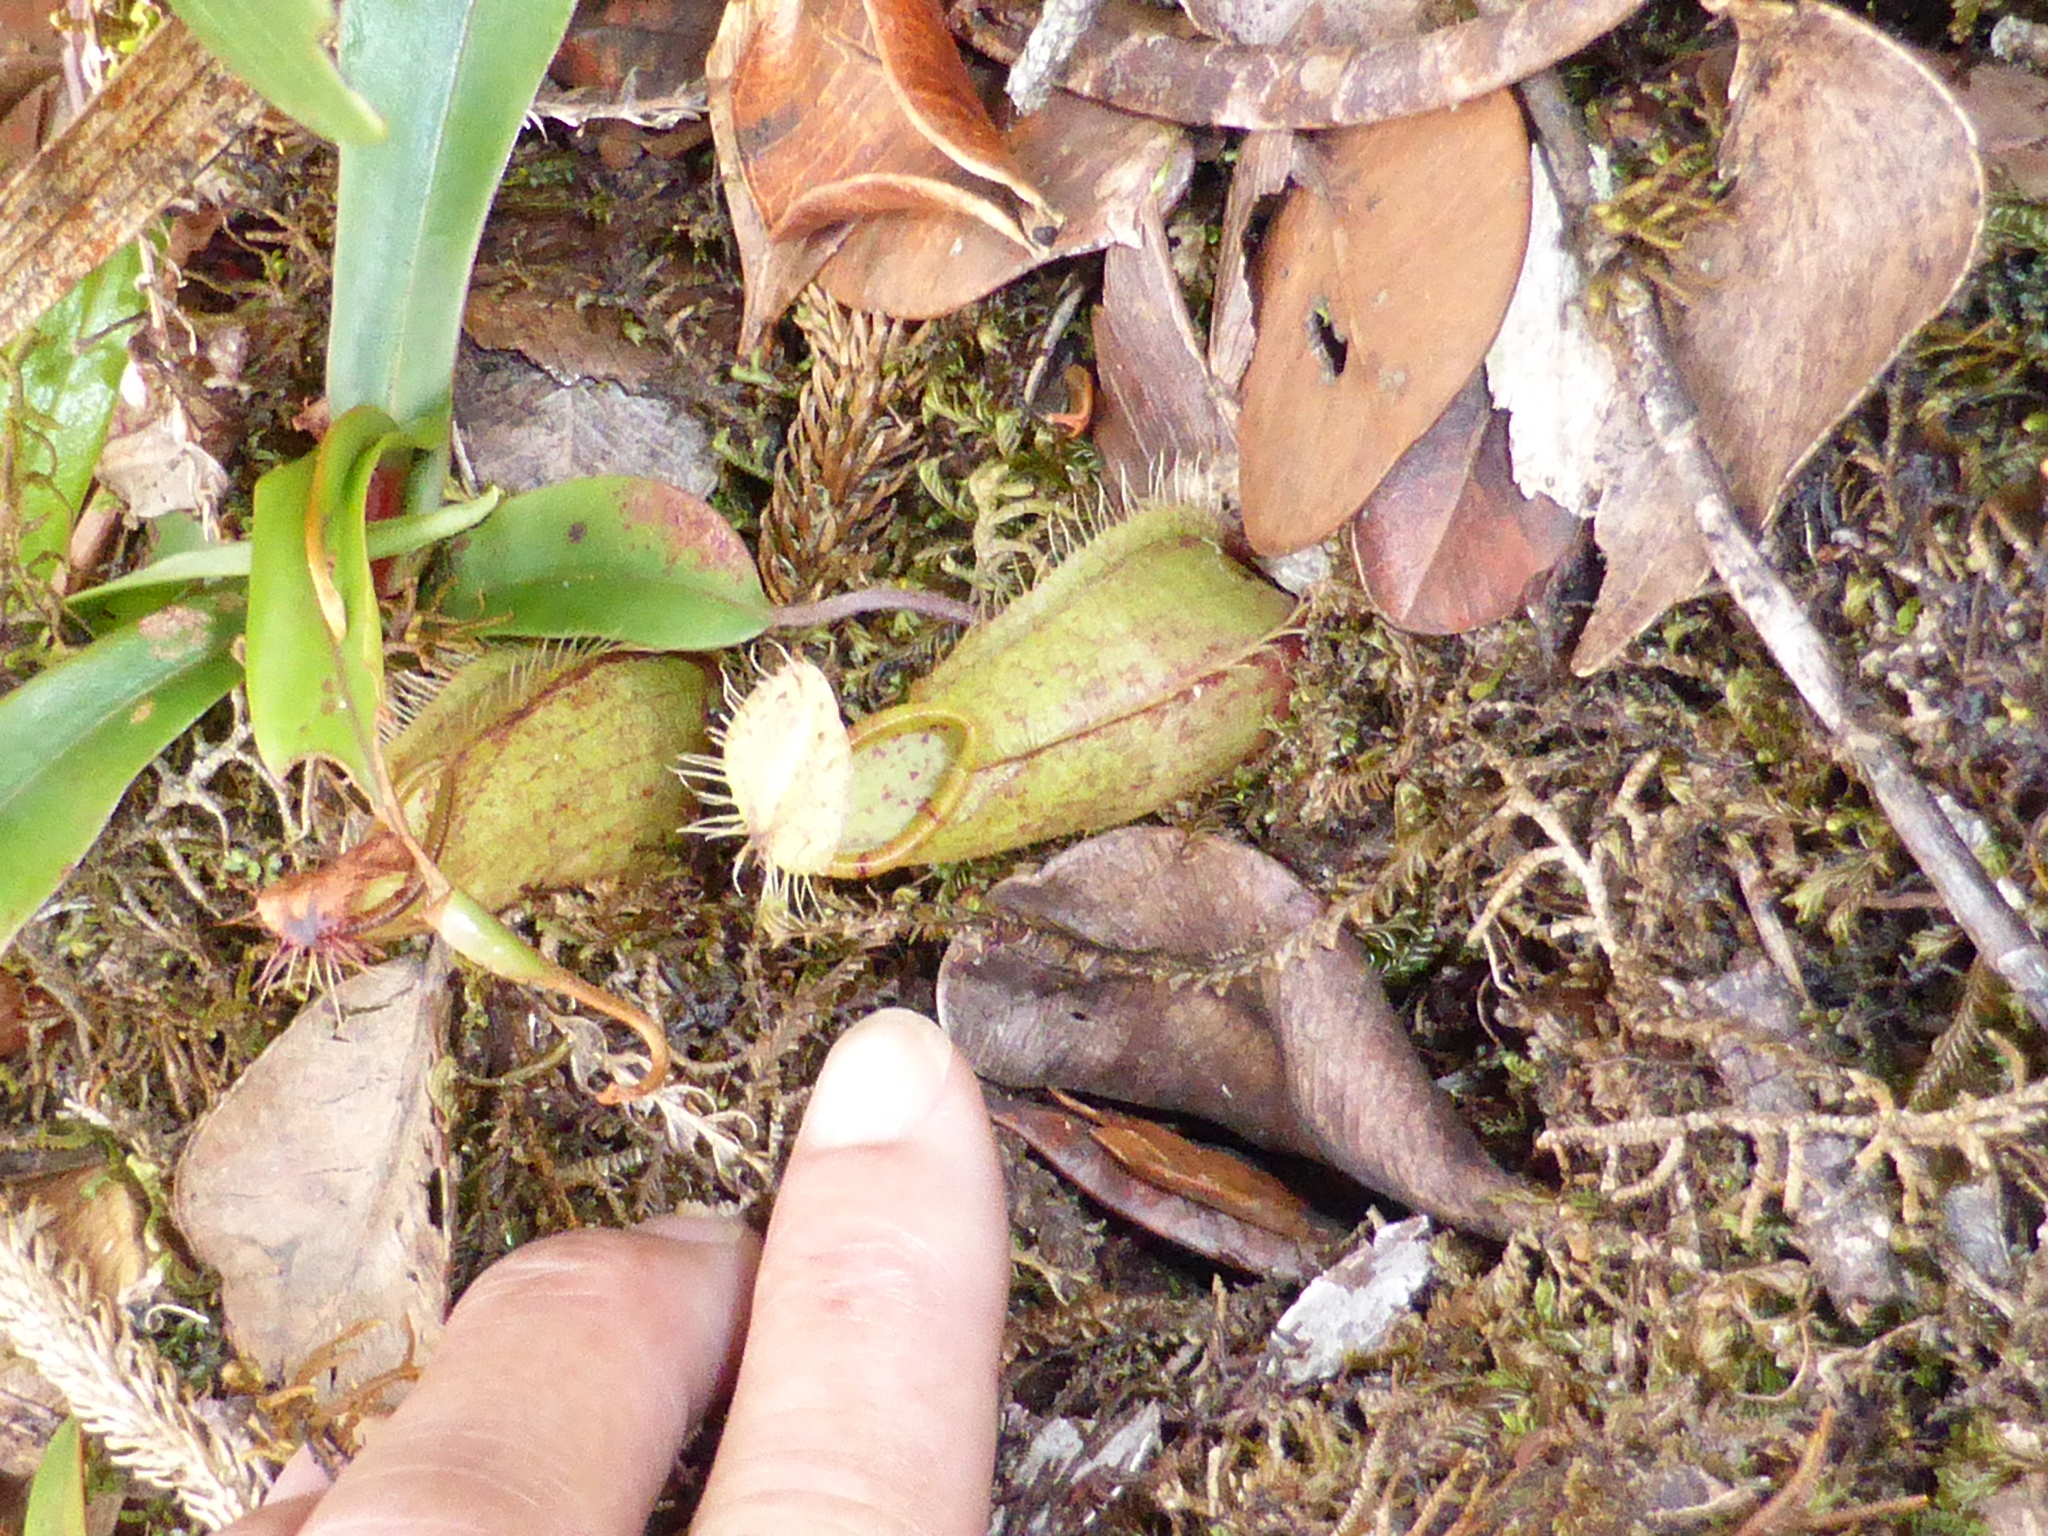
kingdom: Plantae
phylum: Tracheophyta
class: Magnoliopsida
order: Caryophyllales
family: Nepenthaceae
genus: Nepenthes
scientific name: Nepenthes tentaculata
